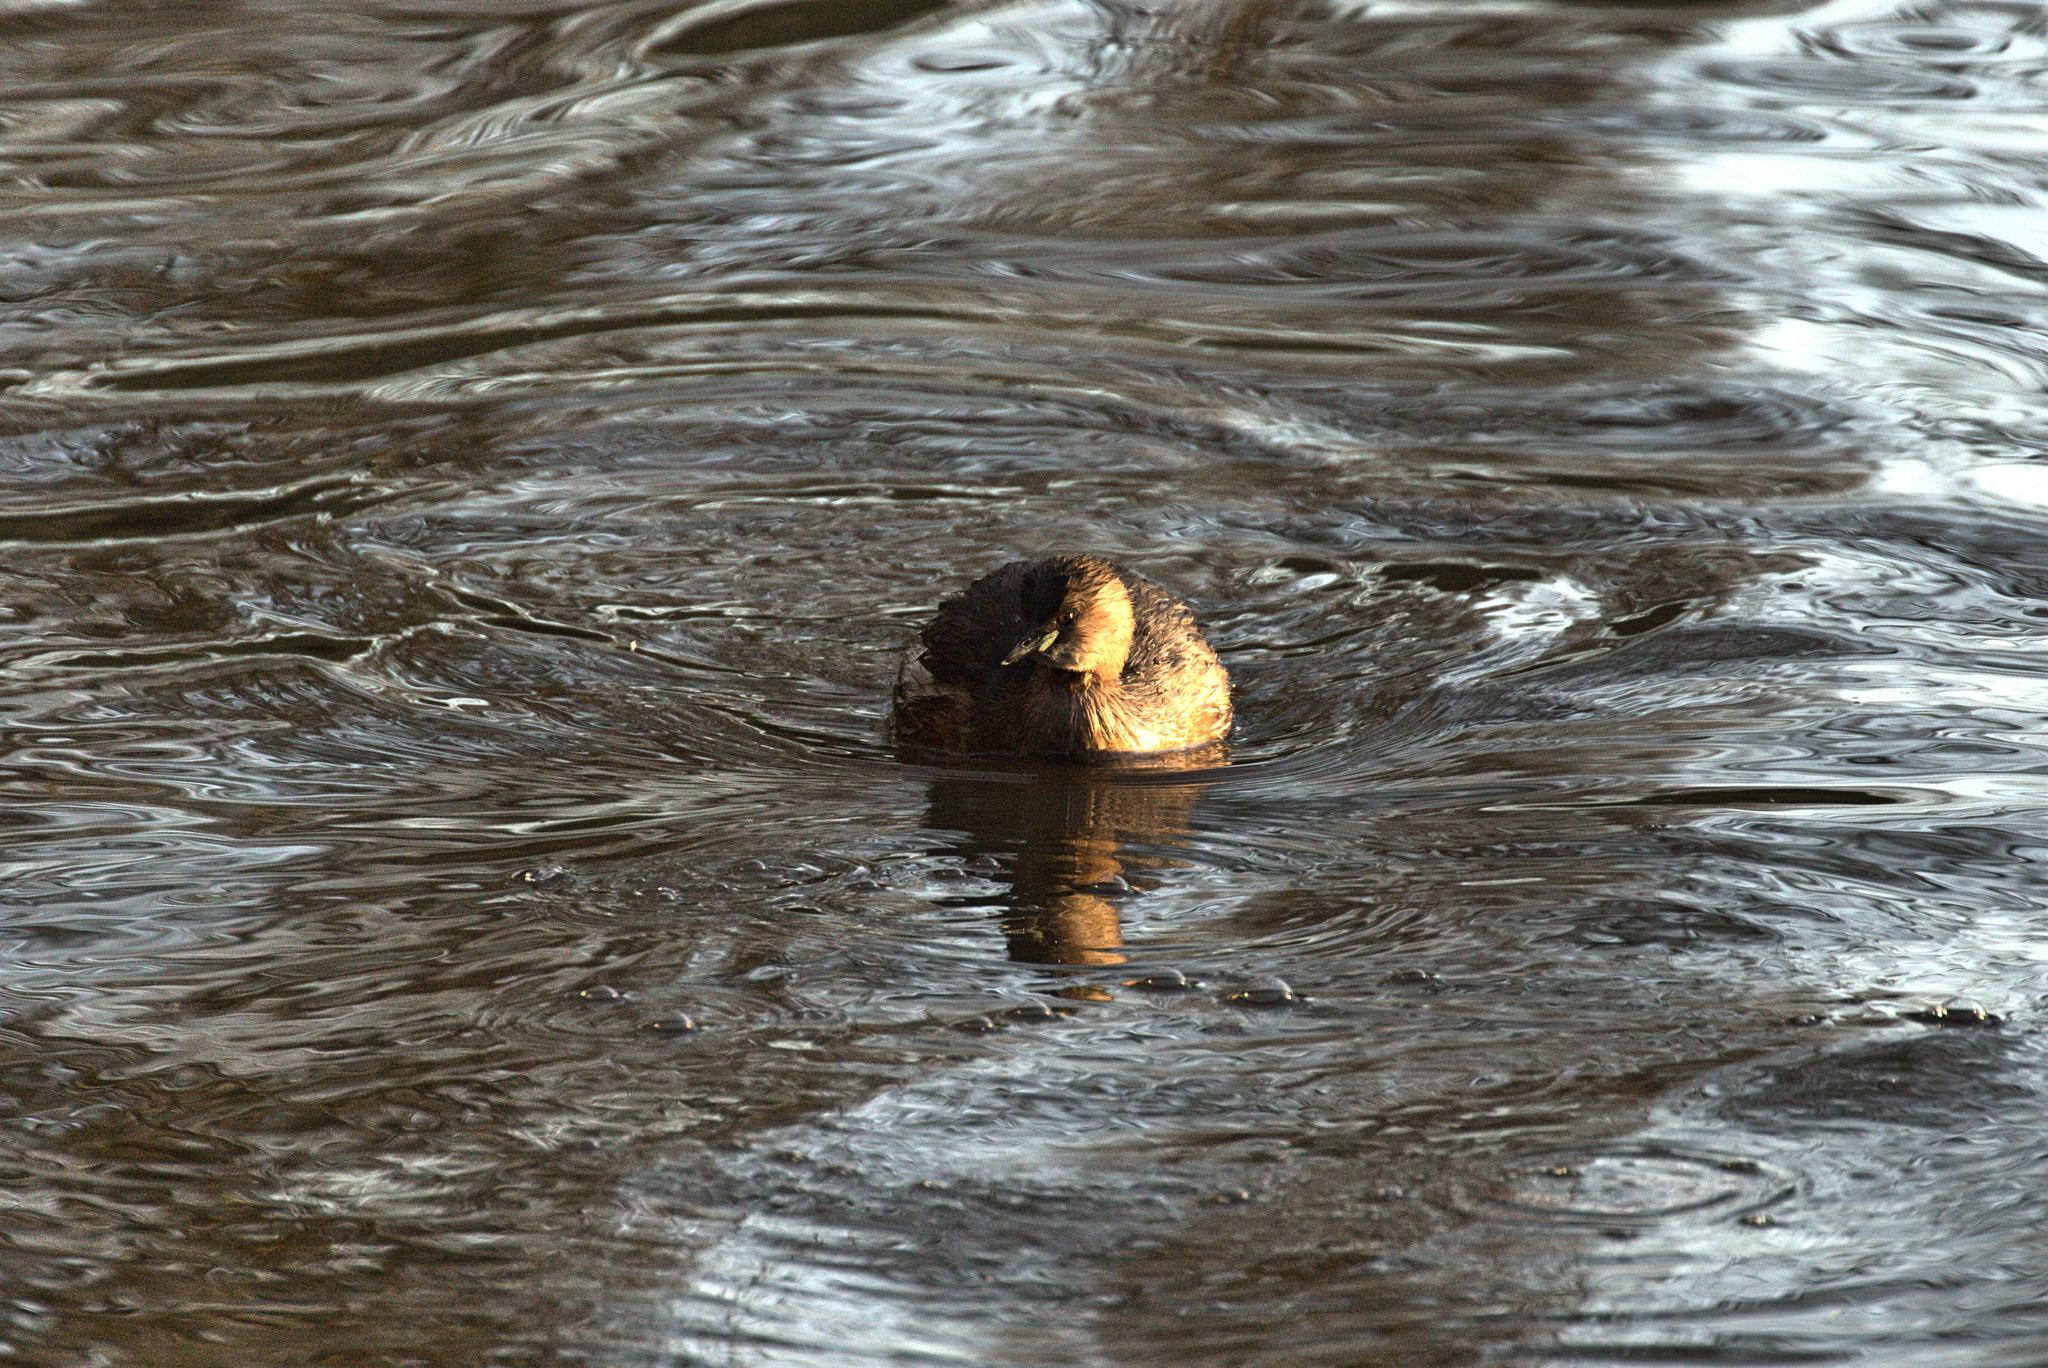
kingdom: Animalia
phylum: Chordata
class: Aves
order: Podicipediformes
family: Podicipedidae
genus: Tachybaptus
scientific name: Tachybaptus ruficollis
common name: Little grebe
